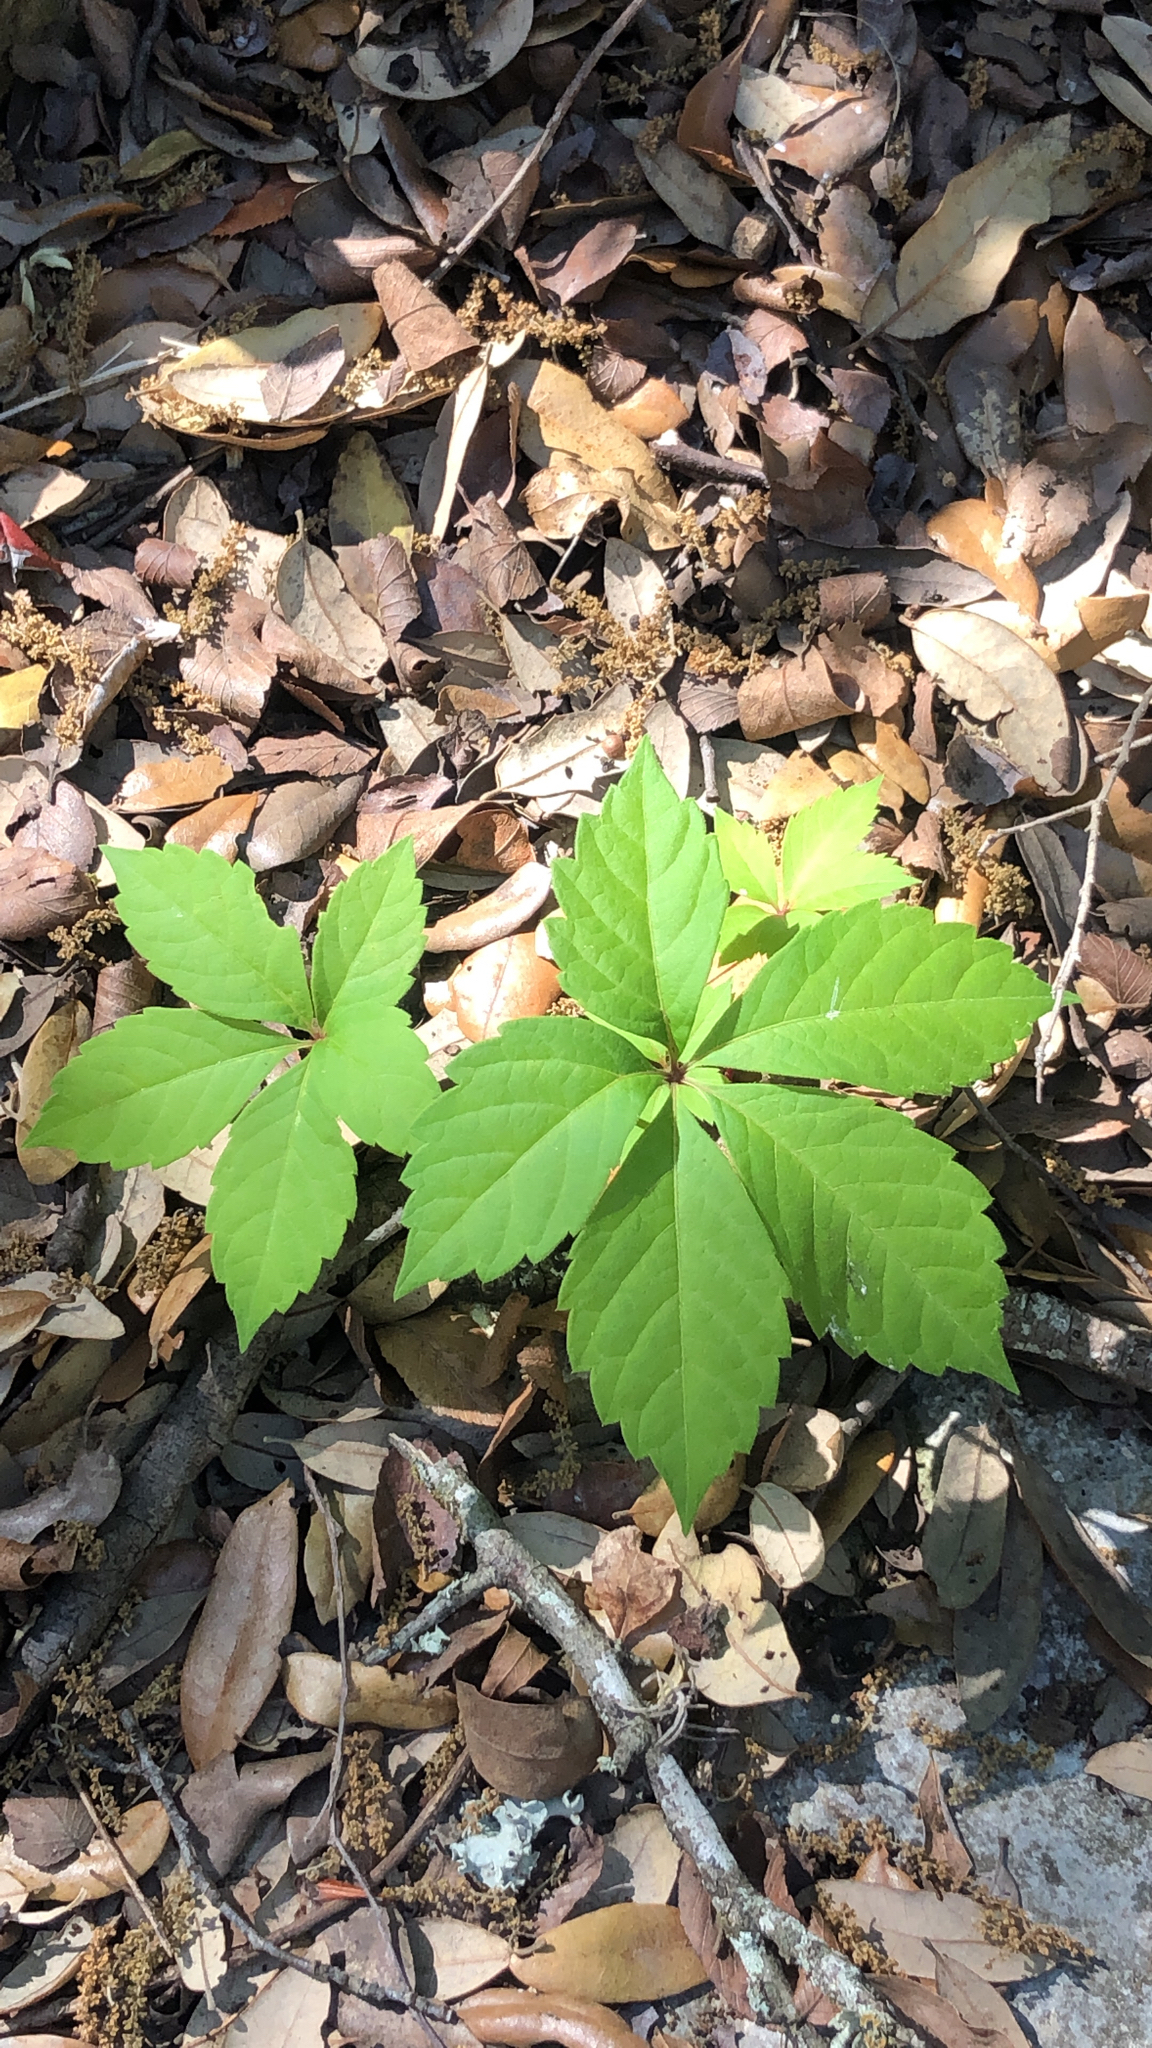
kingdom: Plantae
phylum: Tracheophyta
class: Magnoliopsida
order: Vitales
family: Vitaceae
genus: Parthenocissus
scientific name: Parthenocissus quinquefolia
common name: Virginia-creeper
